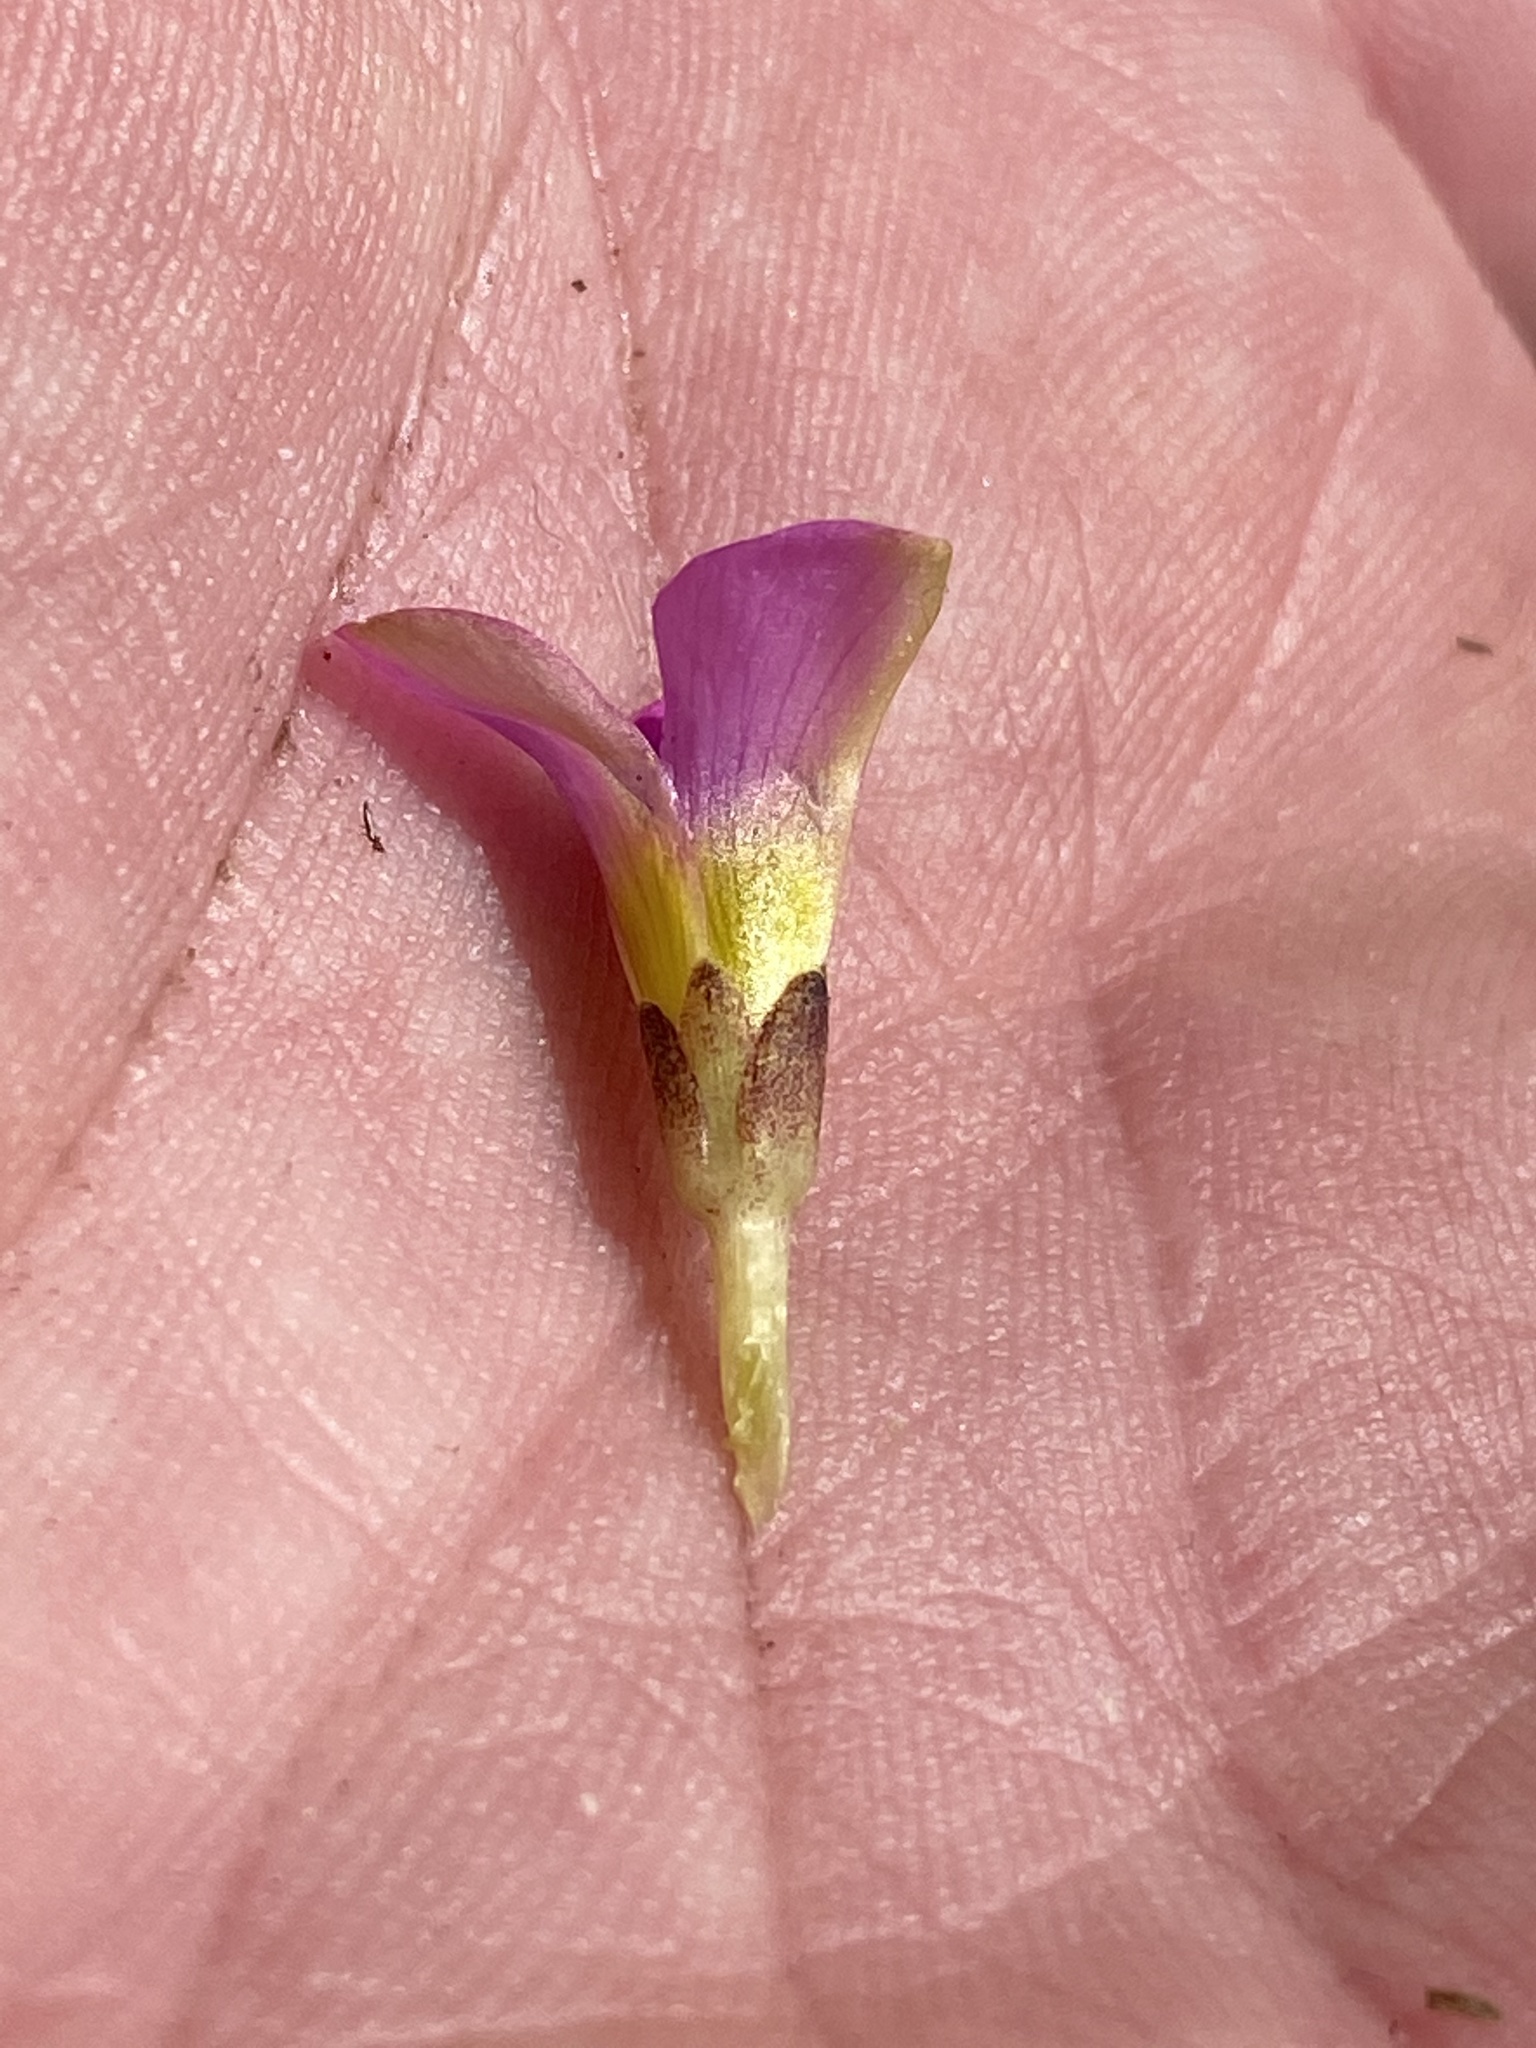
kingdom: Plantae
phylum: Tracheophyta
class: Magnoliopsida
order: Oxalidales
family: Oxalidaceae
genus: Oxalis
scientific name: Oxalis depressa
